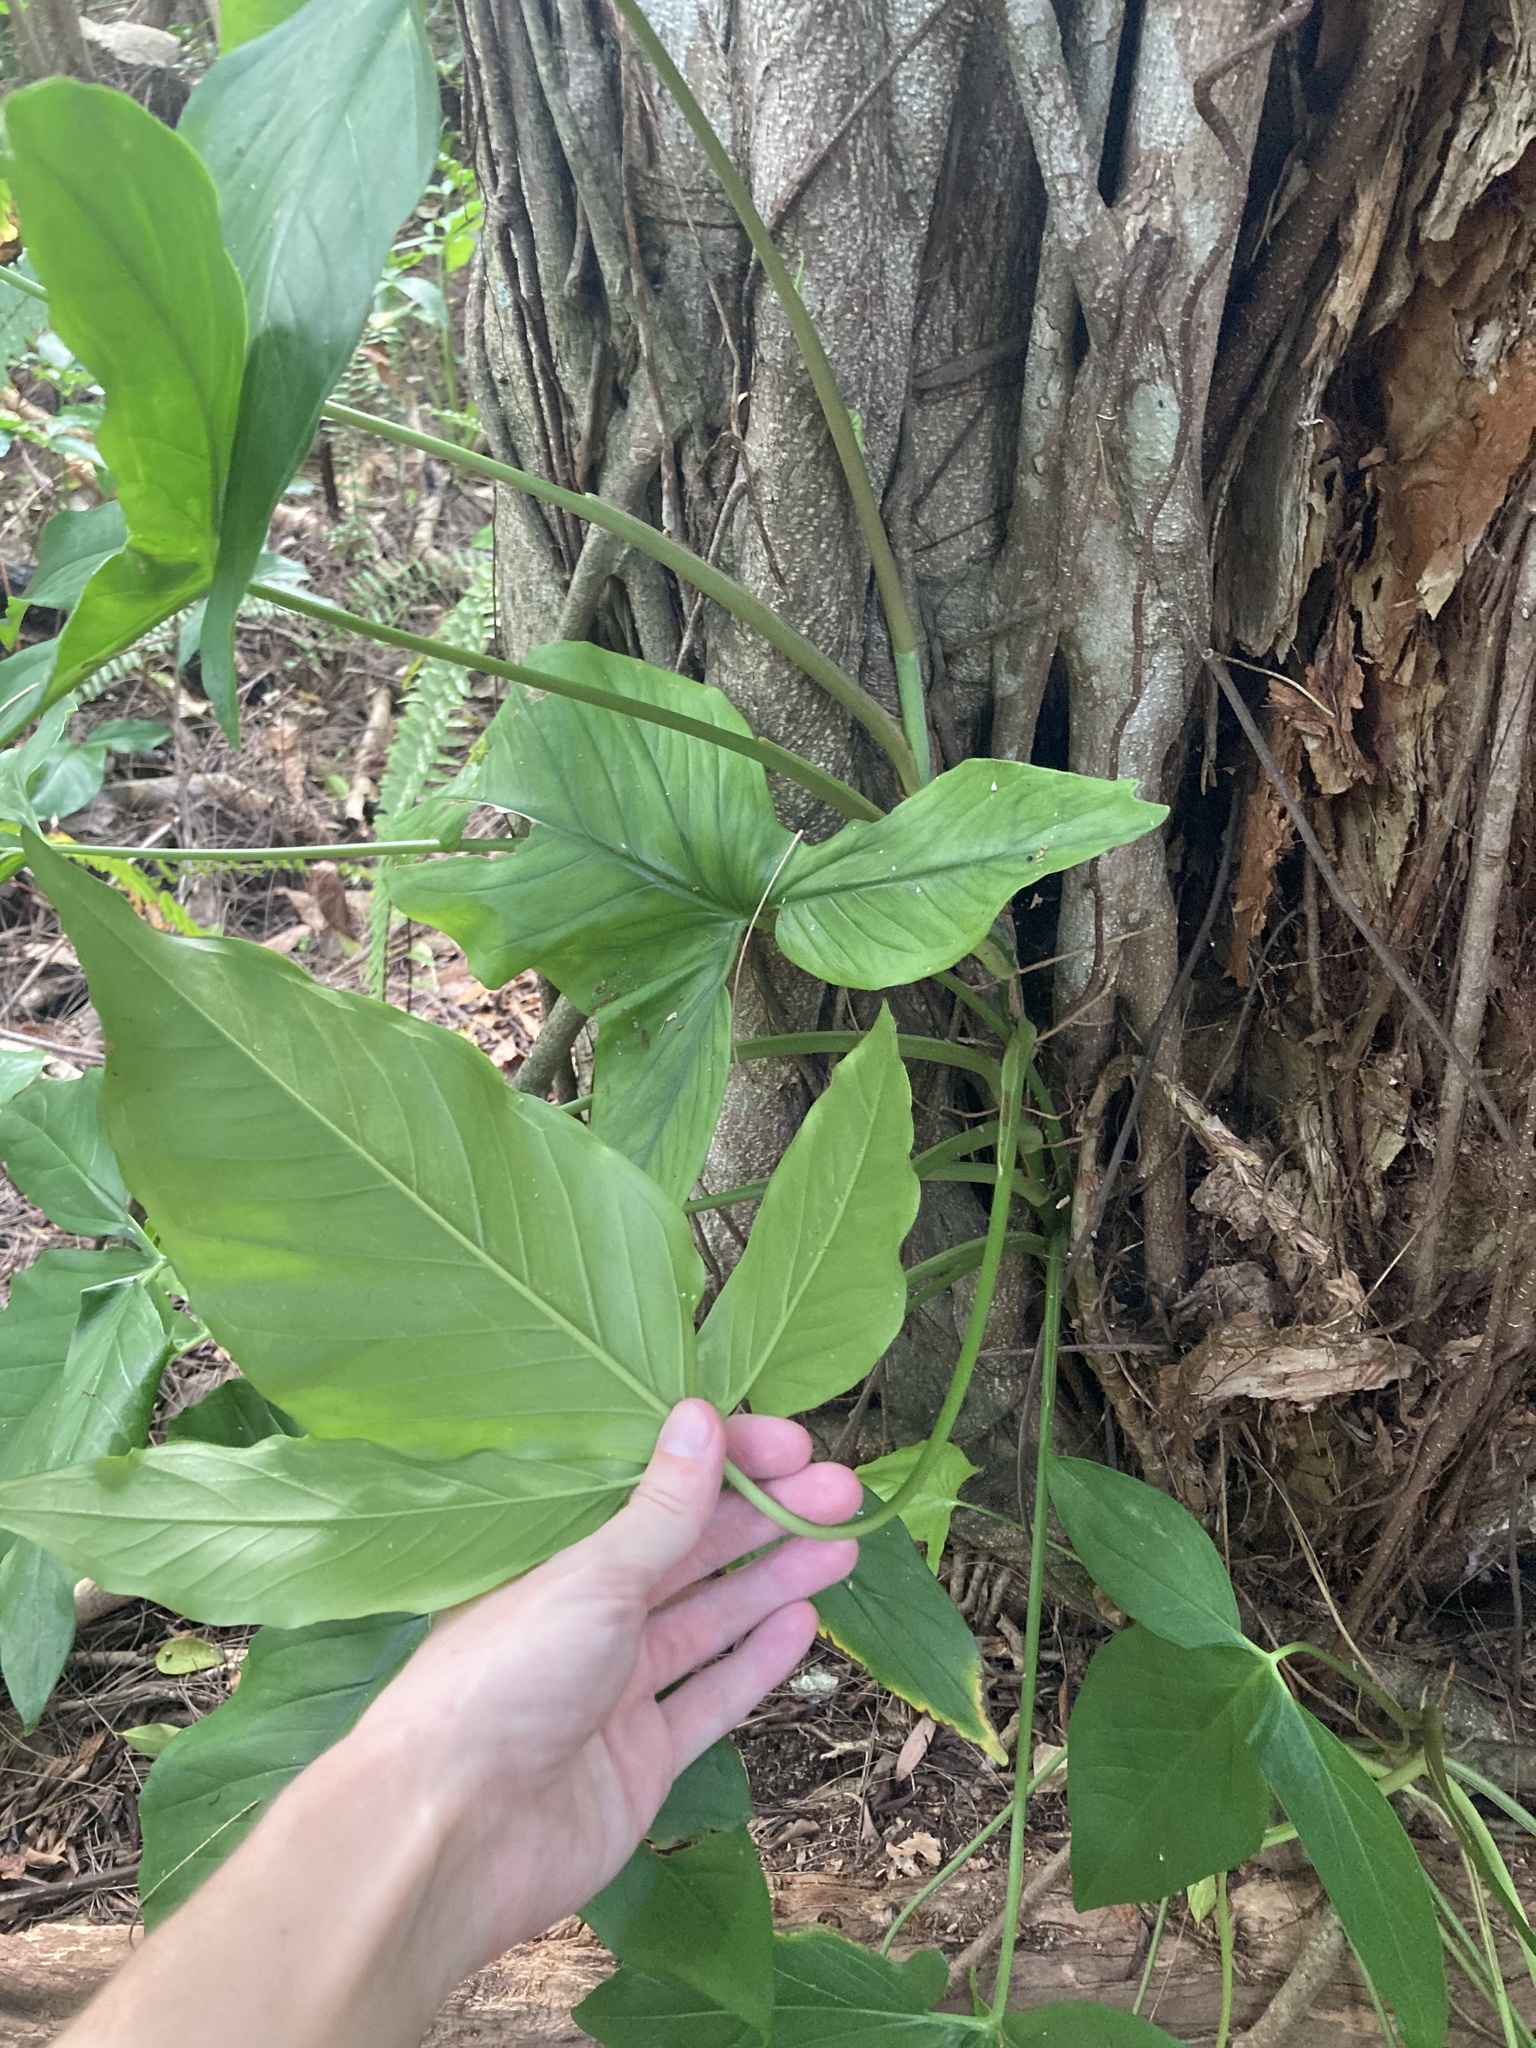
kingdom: Plantae
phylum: Tracheophyta
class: Liliopsida
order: Alismatales
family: Araceae
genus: Syngonium
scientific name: Syngonium podophyllum
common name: American evergreen
